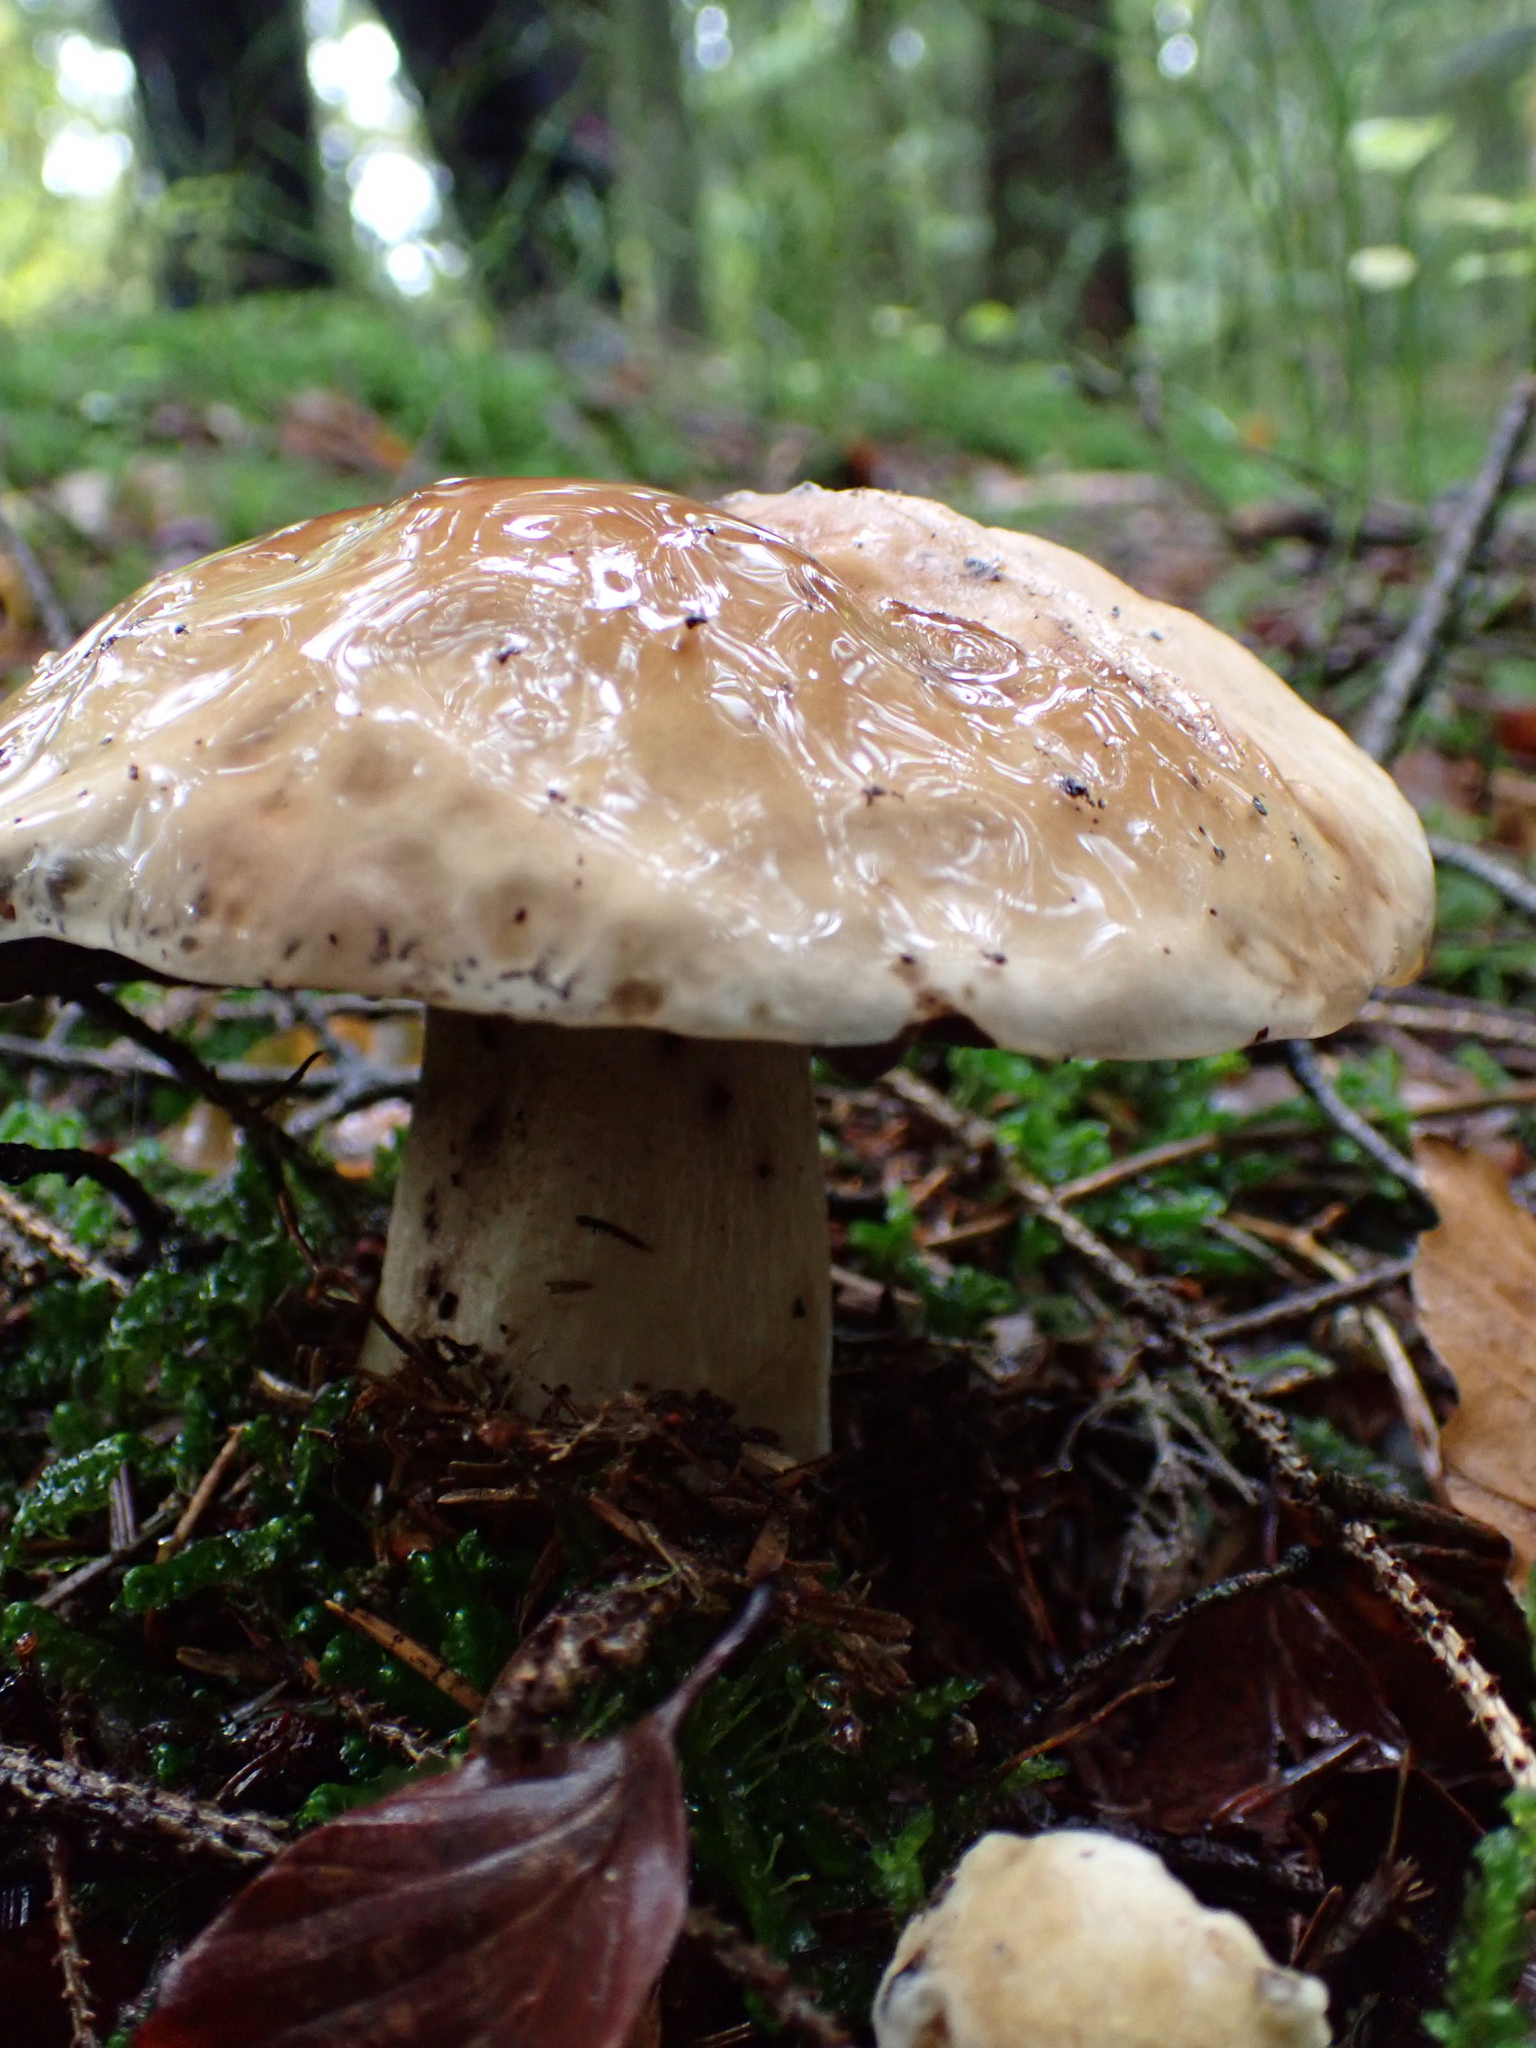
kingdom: Fungi
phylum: Basidiomycota
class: Agaricomycetes
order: Boletales
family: Boletaceae
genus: Boletus
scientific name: Boletus edulis
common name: Cep
